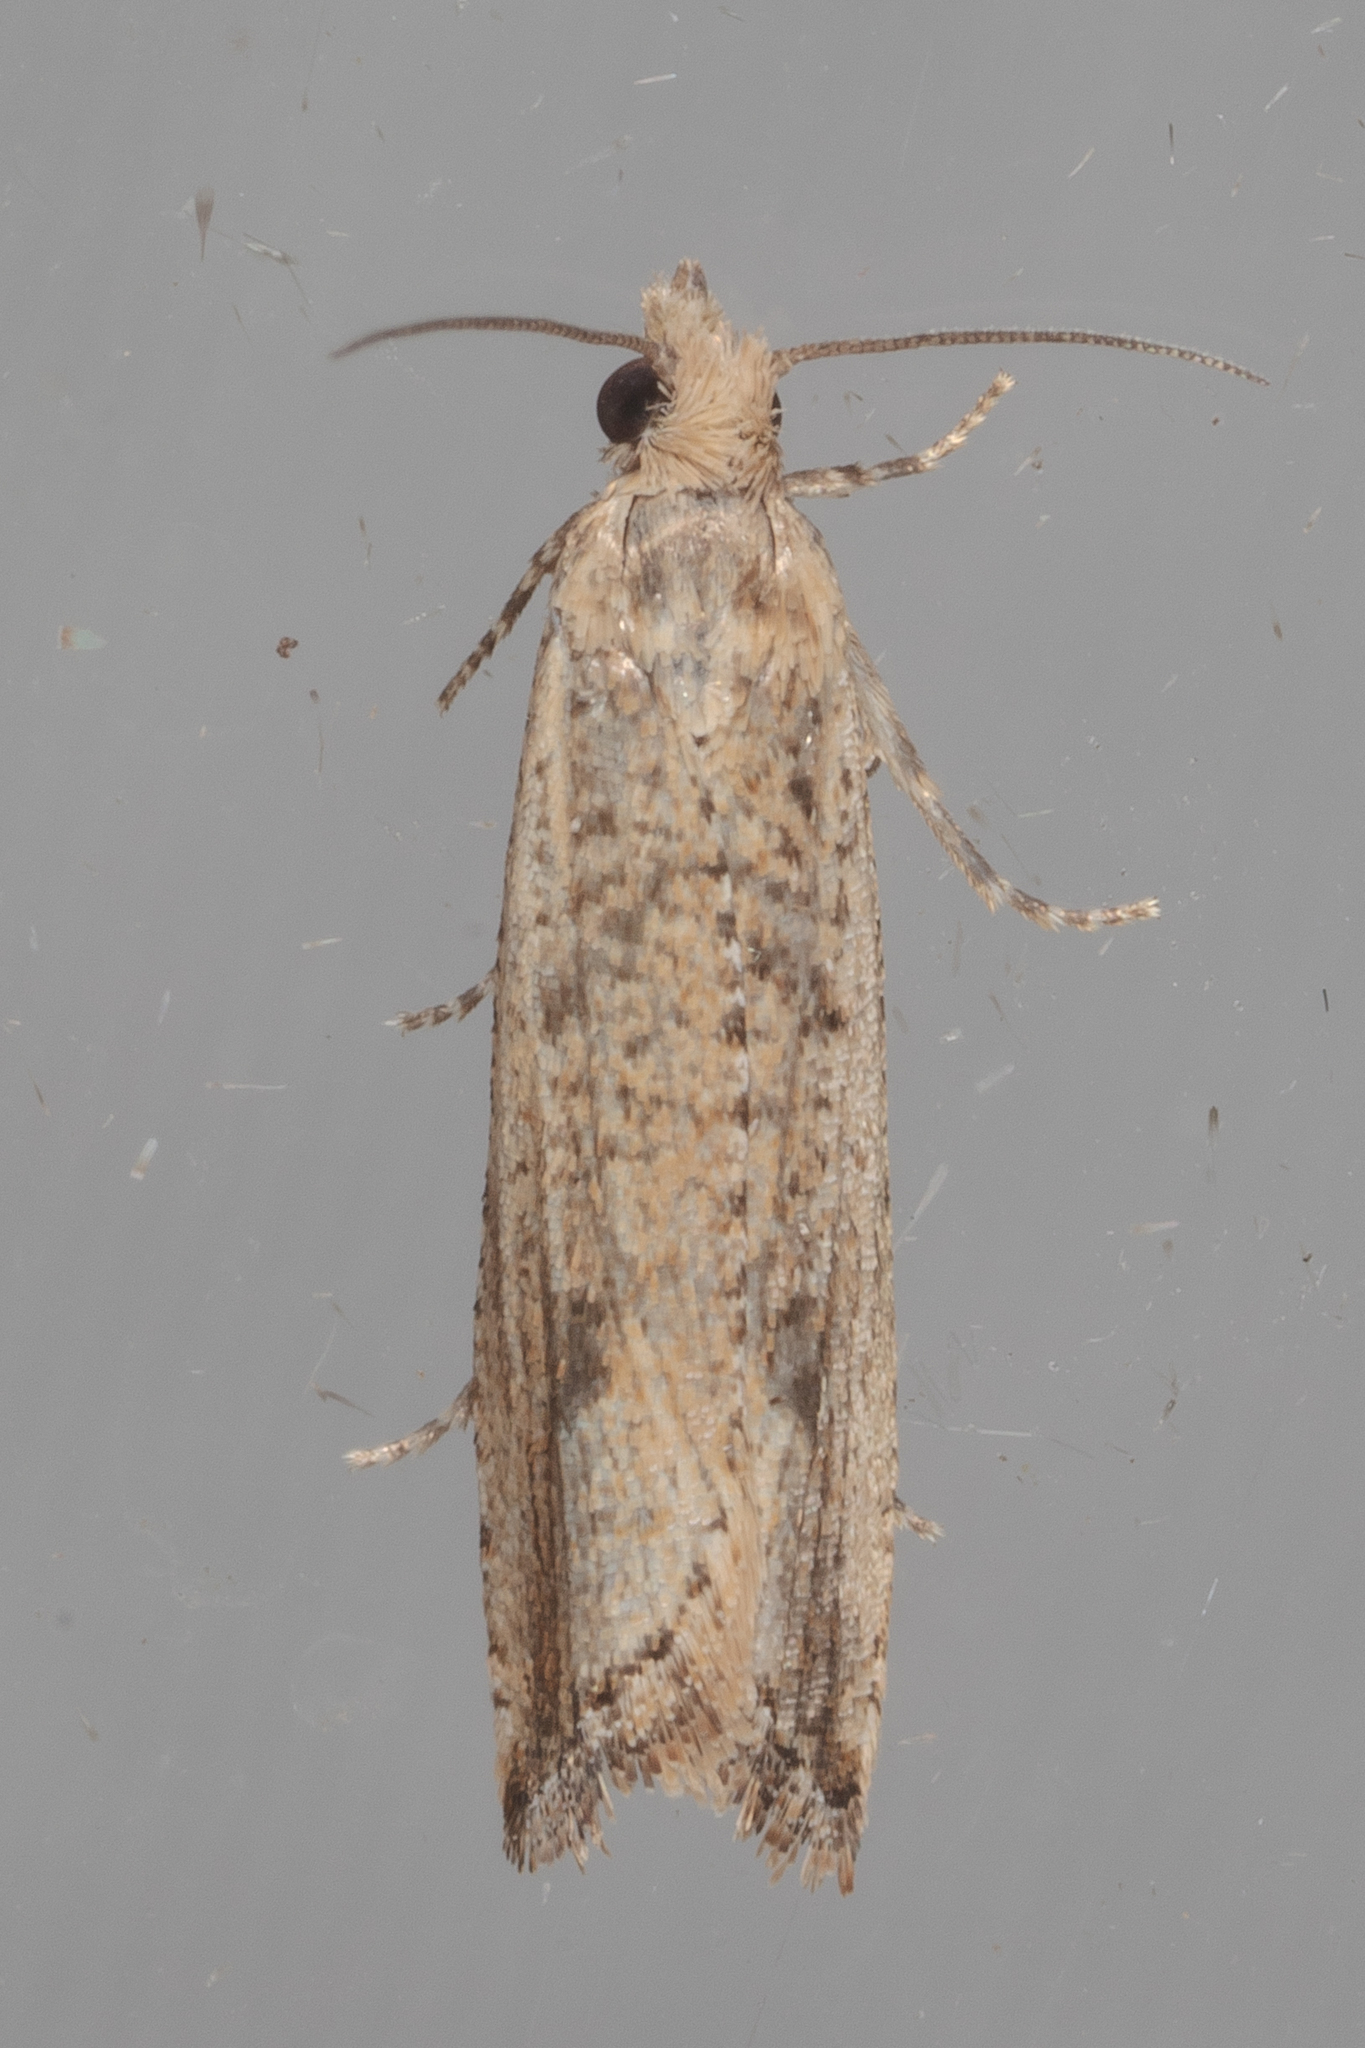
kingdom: Animalia
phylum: Arthropoda
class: Insecta
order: Lepidoptera
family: Tortricidae
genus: Bactra
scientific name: Bactra verutana
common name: Javelin moth
